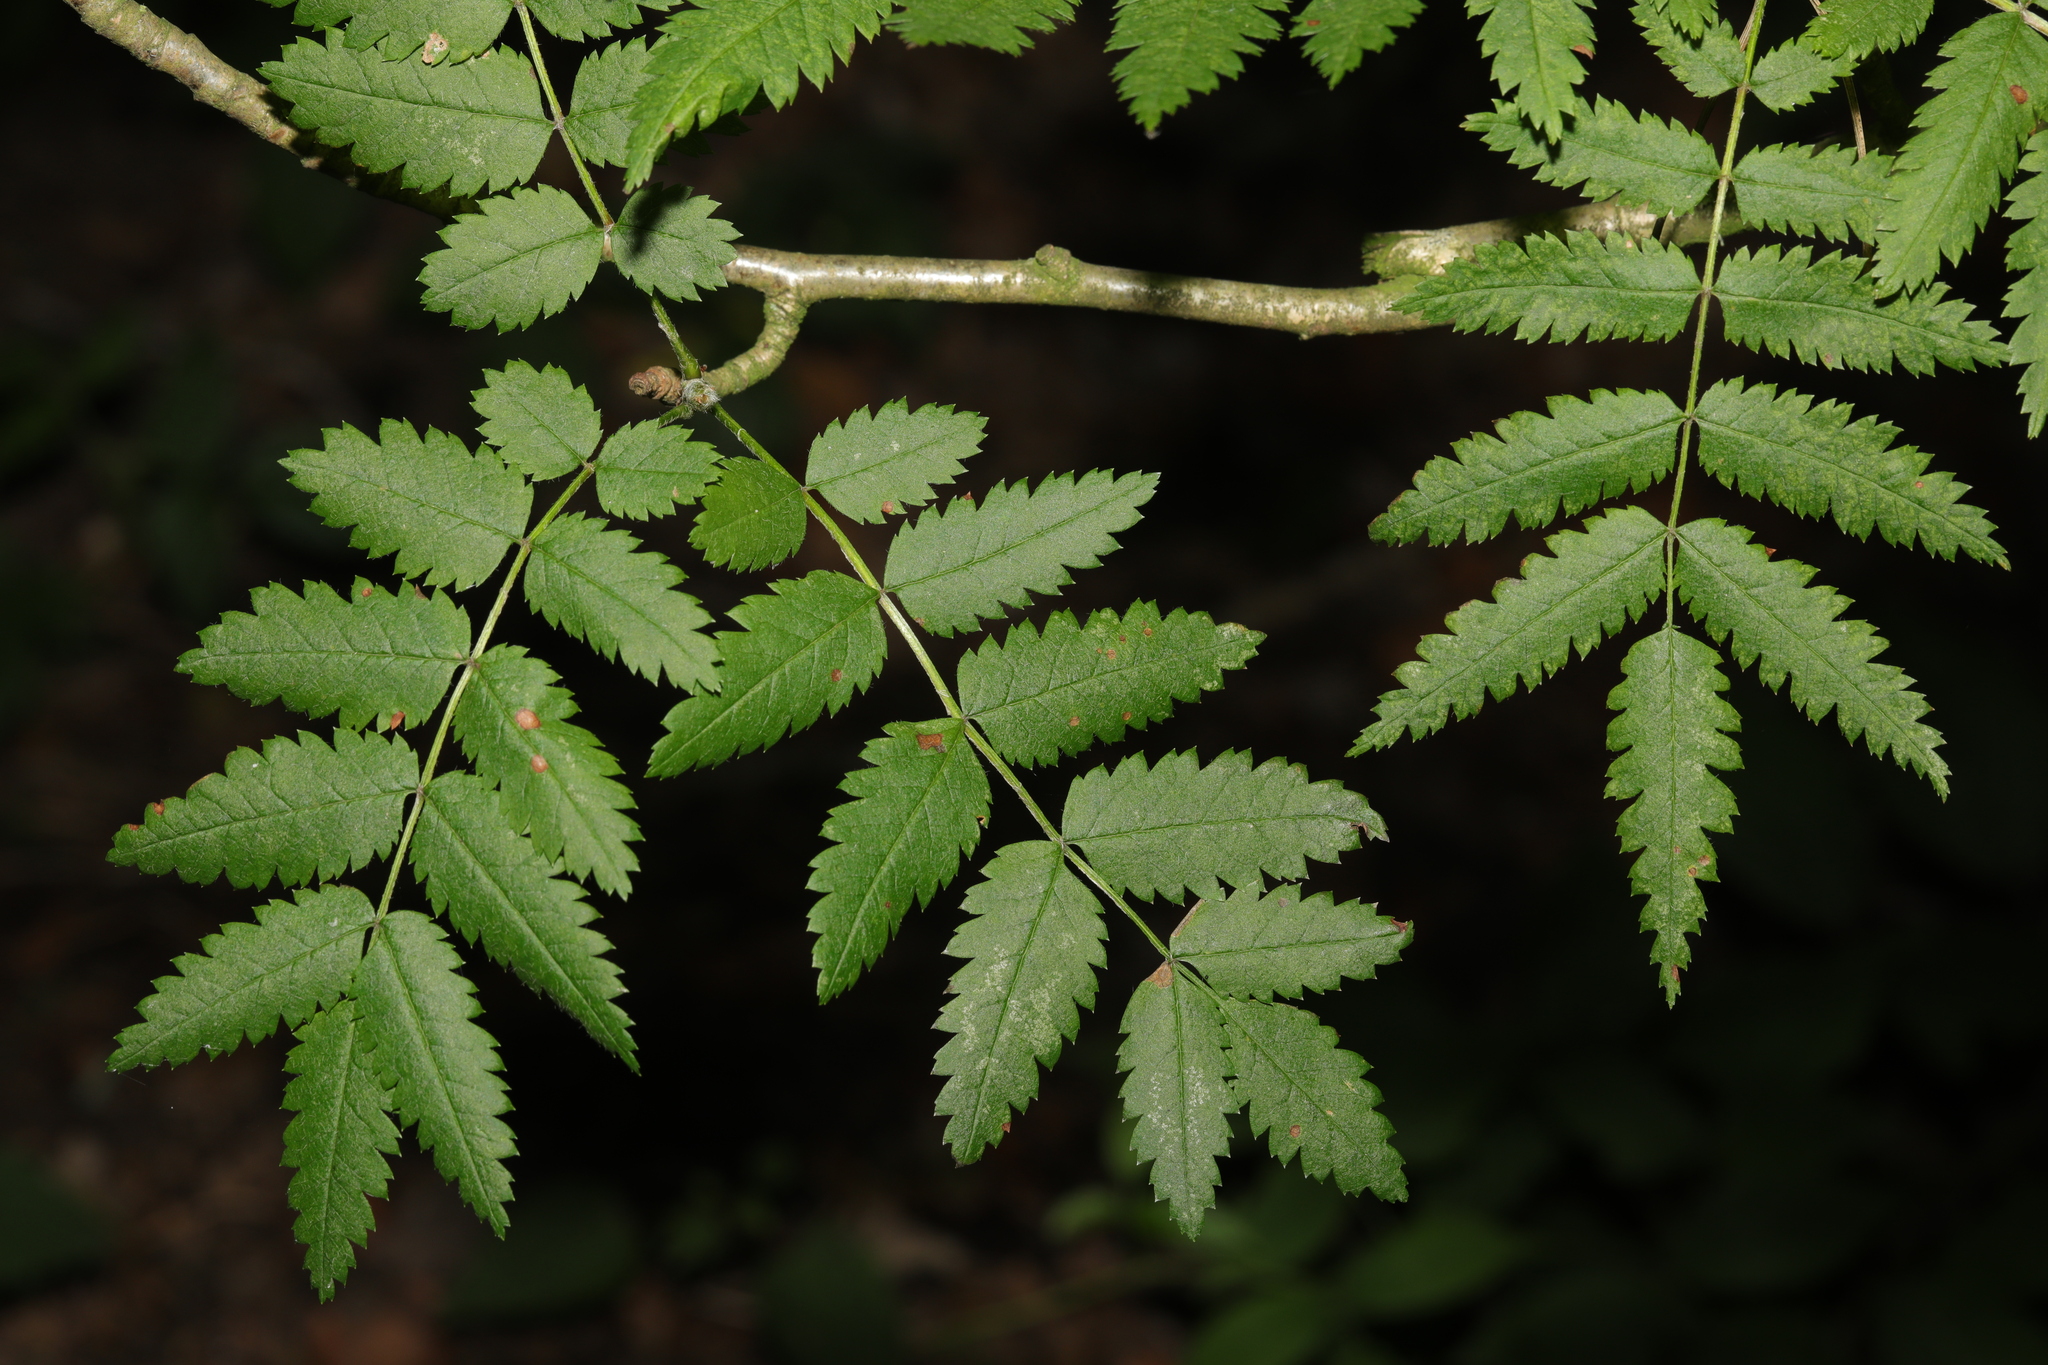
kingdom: Plantae
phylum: Tracheophyta
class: Magnoliopsida
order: Rosales
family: Rosaceae
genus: Sorbus
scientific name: Sorbus aucuparia
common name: Rowan
